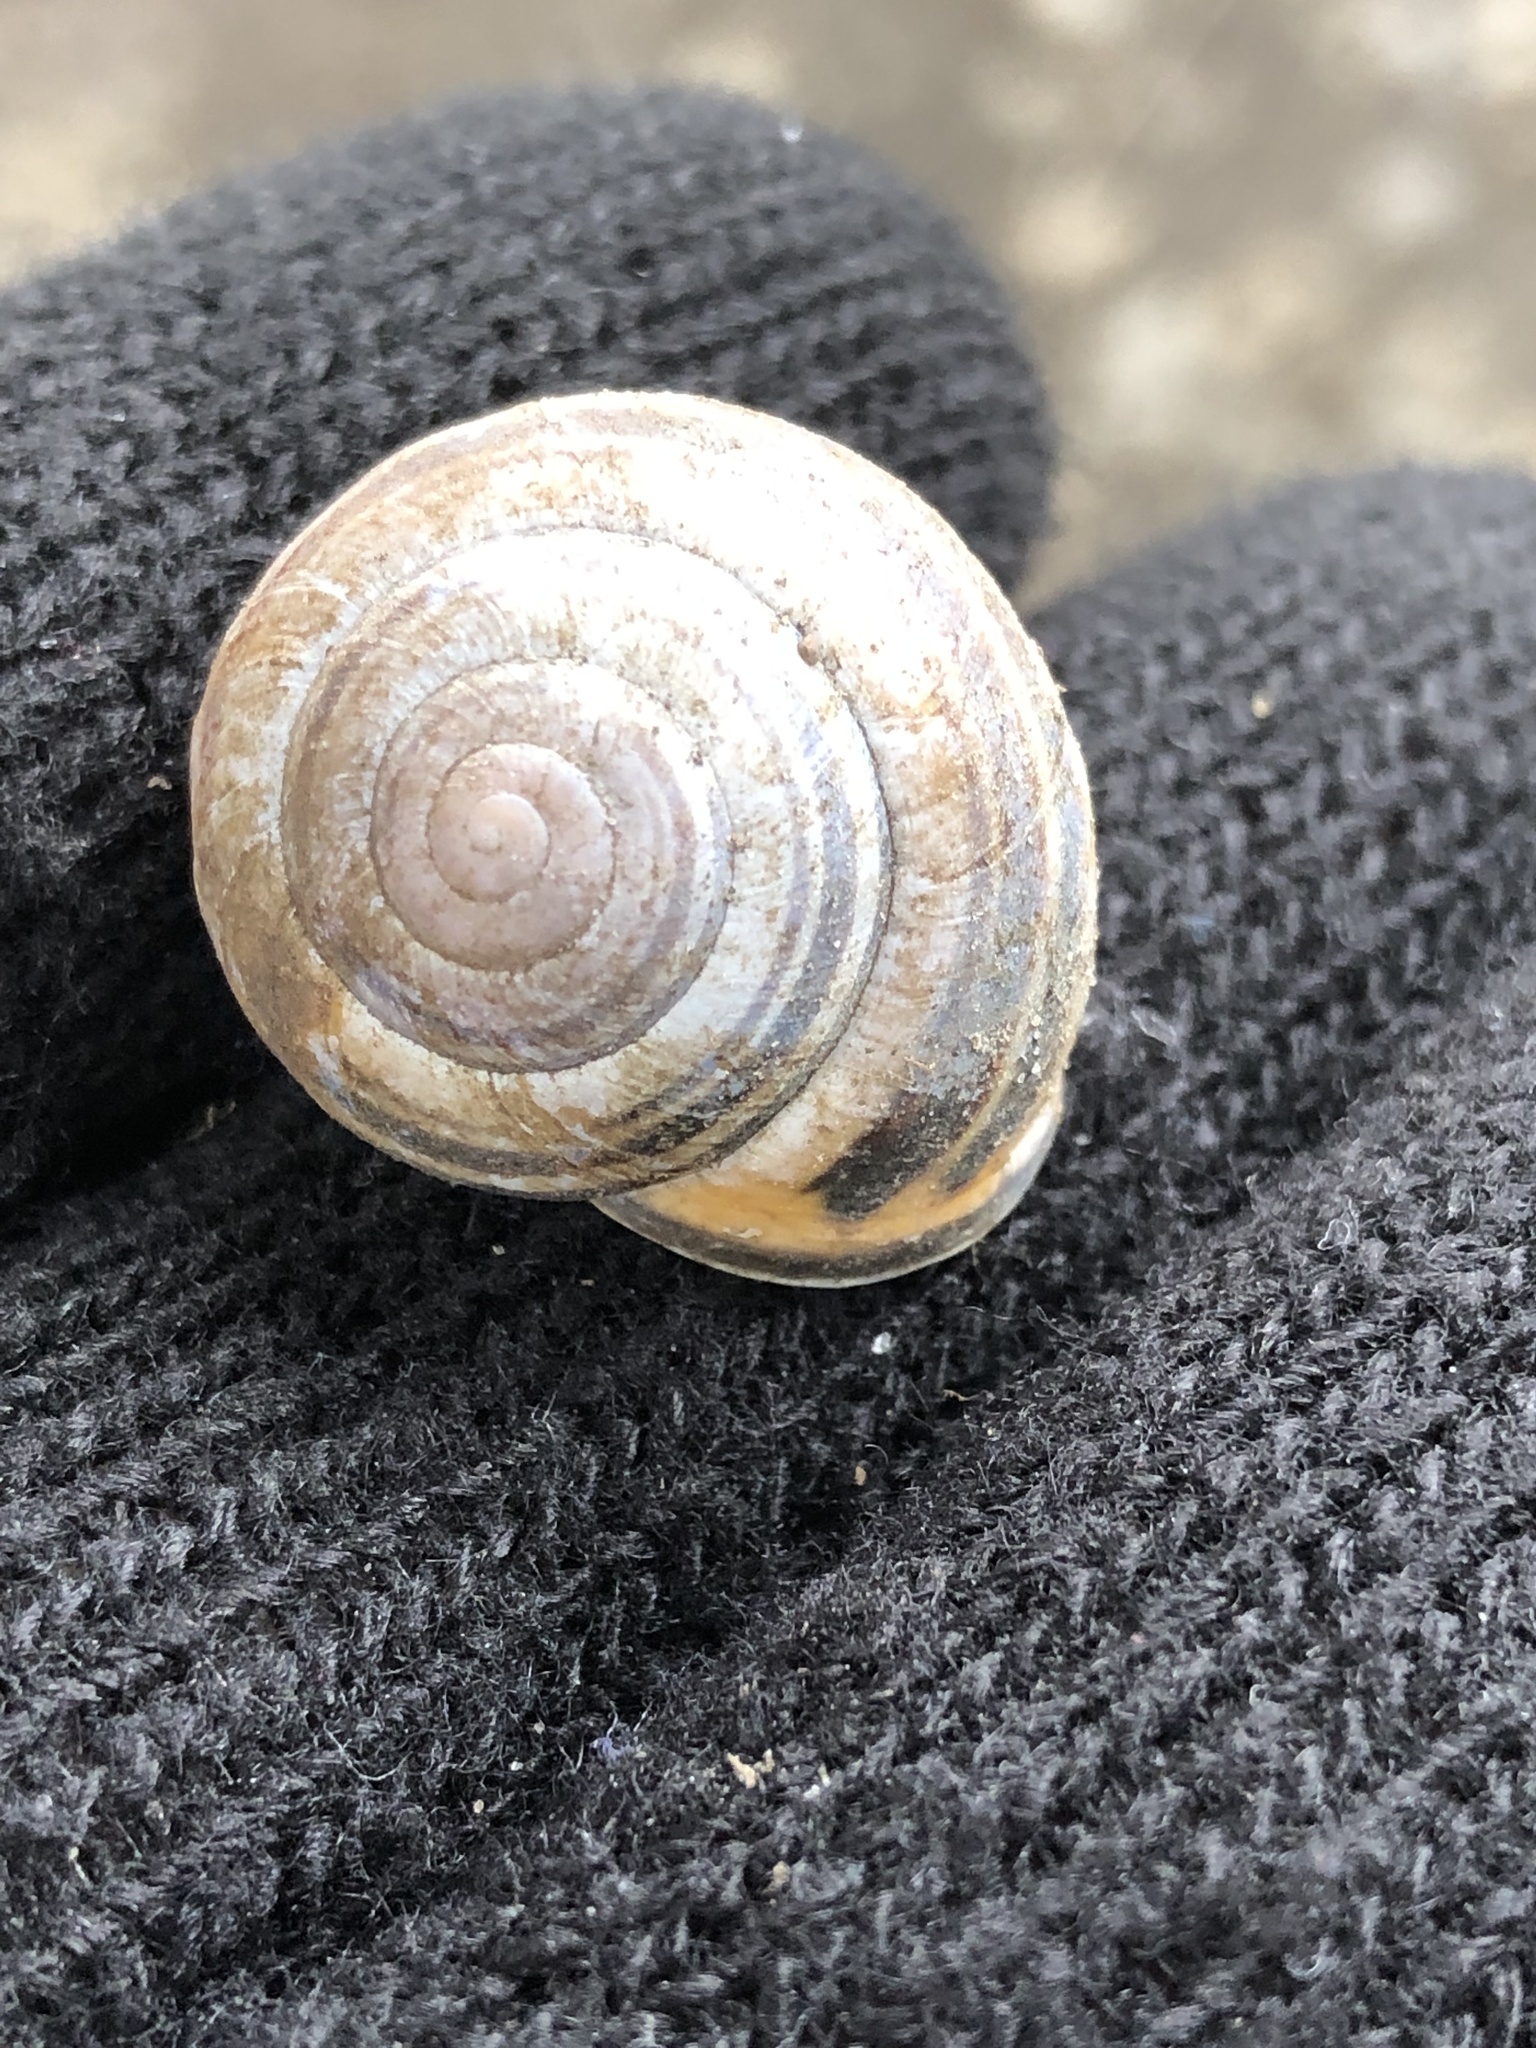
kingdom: Animalia
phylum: Mollusca
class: Gastropoda
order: Stylommatophora
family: Helicidae
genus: Cepaea
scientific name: Cepaea nemoralis
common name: Grovesnail
